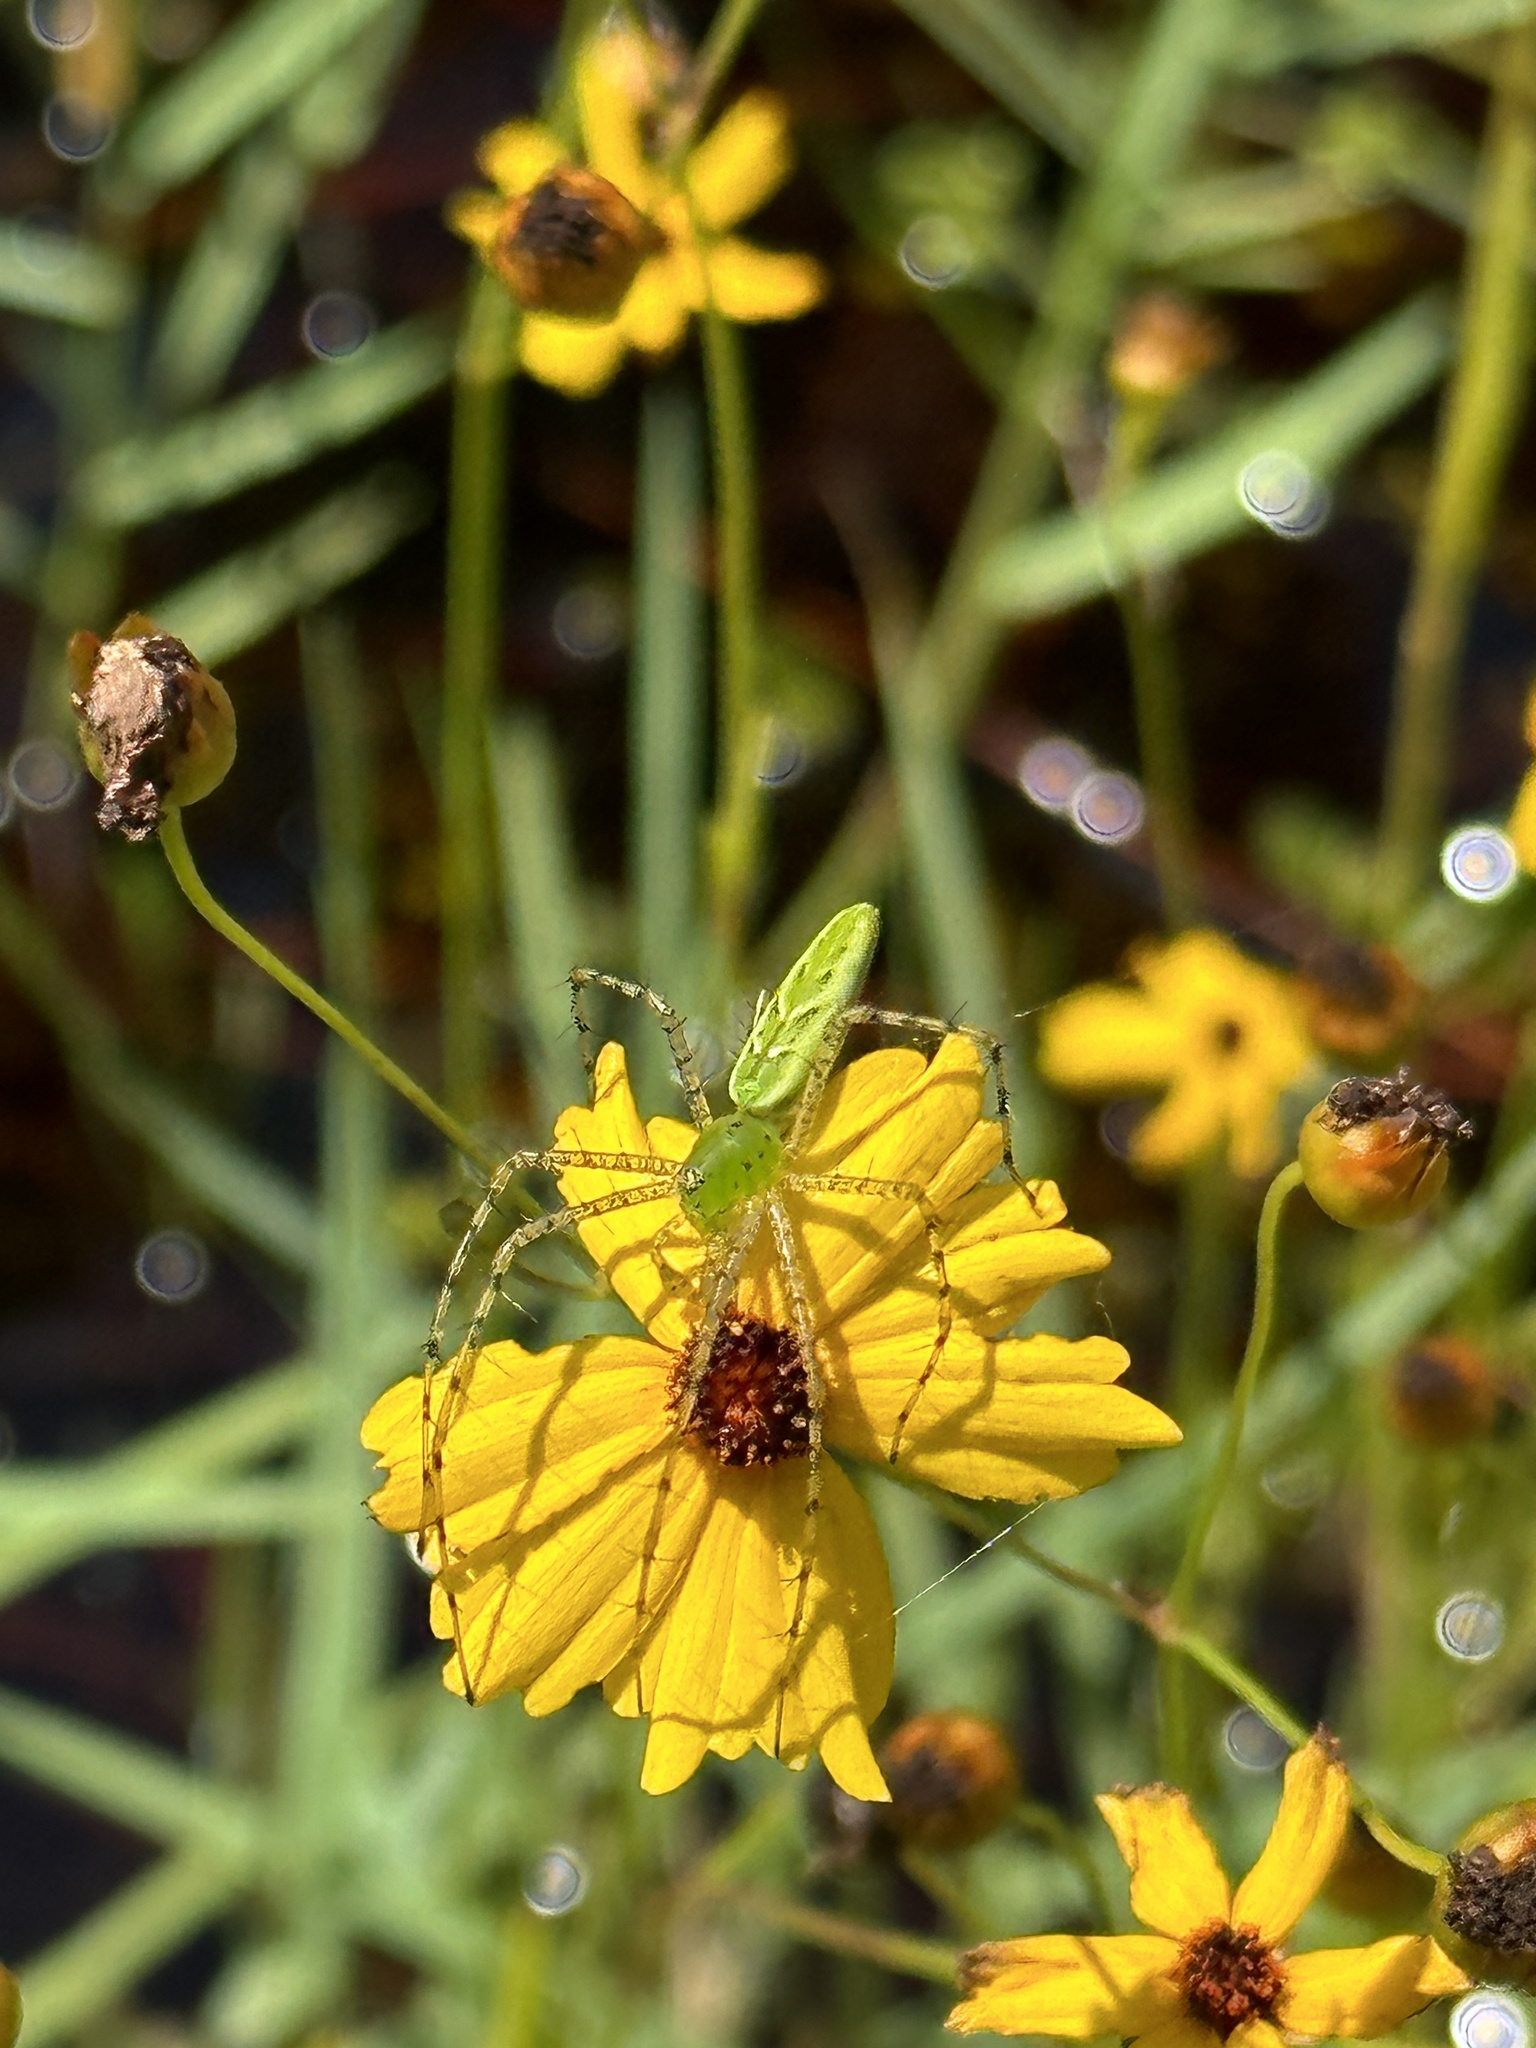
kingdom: Animalia
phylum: Arthropoda
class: Arachnida
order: Araneae
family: Oxyopidae
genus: Peucetia
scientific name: Peucetia viridans
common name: Lynx spiders
